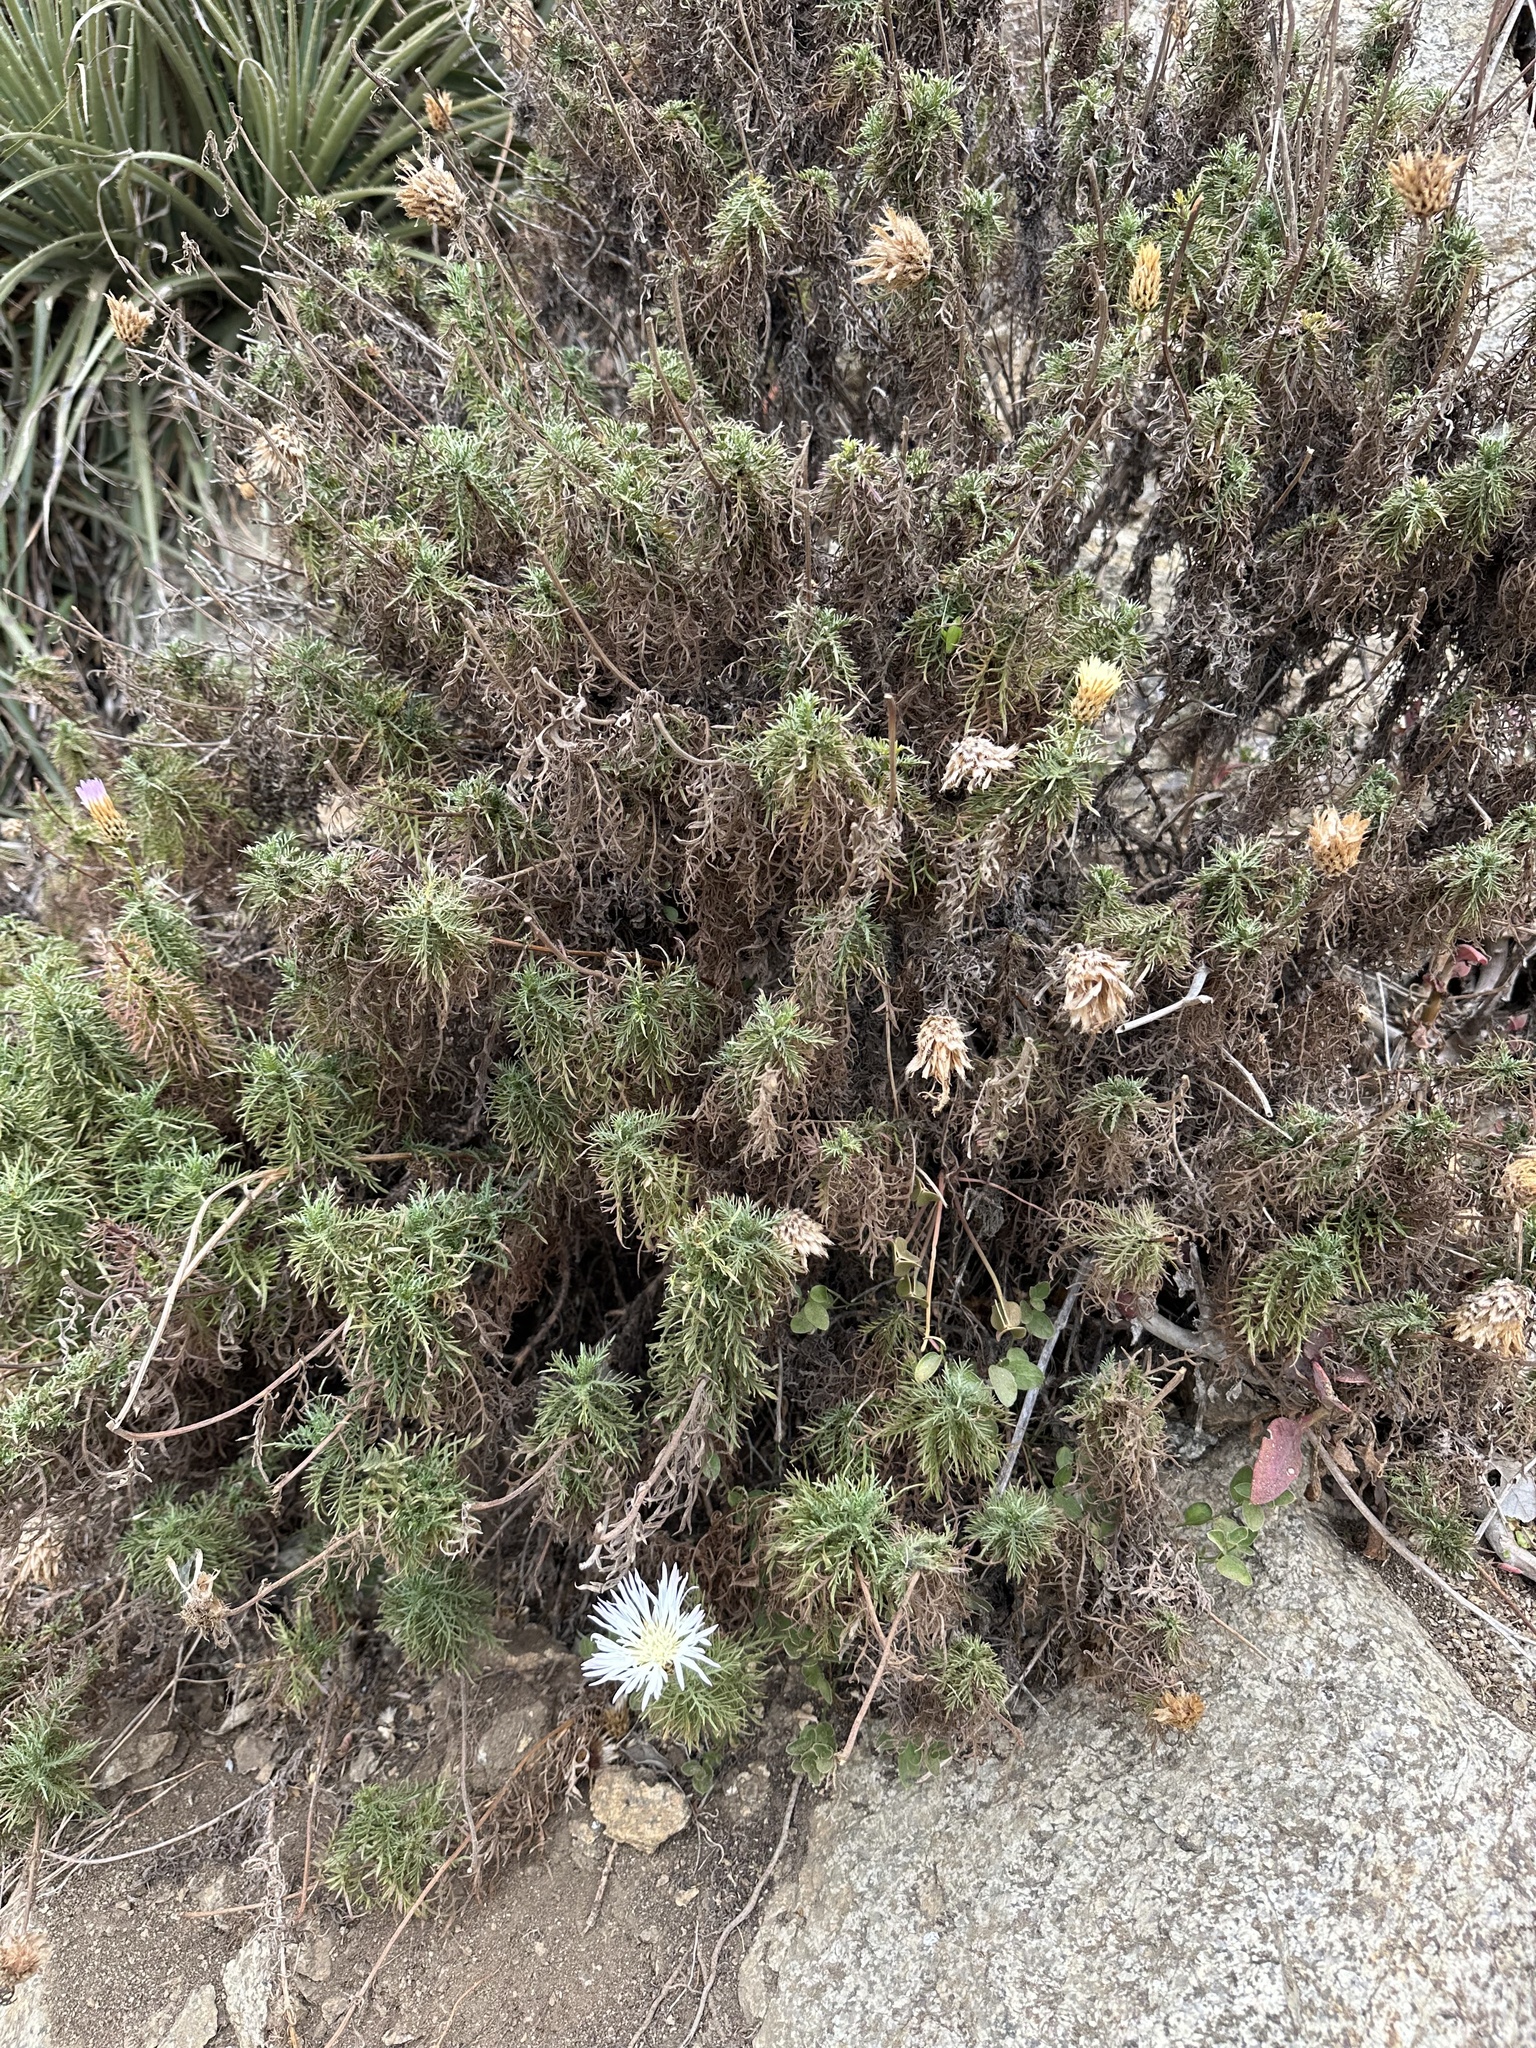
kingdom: Plantae
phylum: Tracheophyta
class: Magnoliopsida
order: Asterales
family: Asteraceae
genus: Plectocephalus
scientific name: Plectocephalus chilensis
